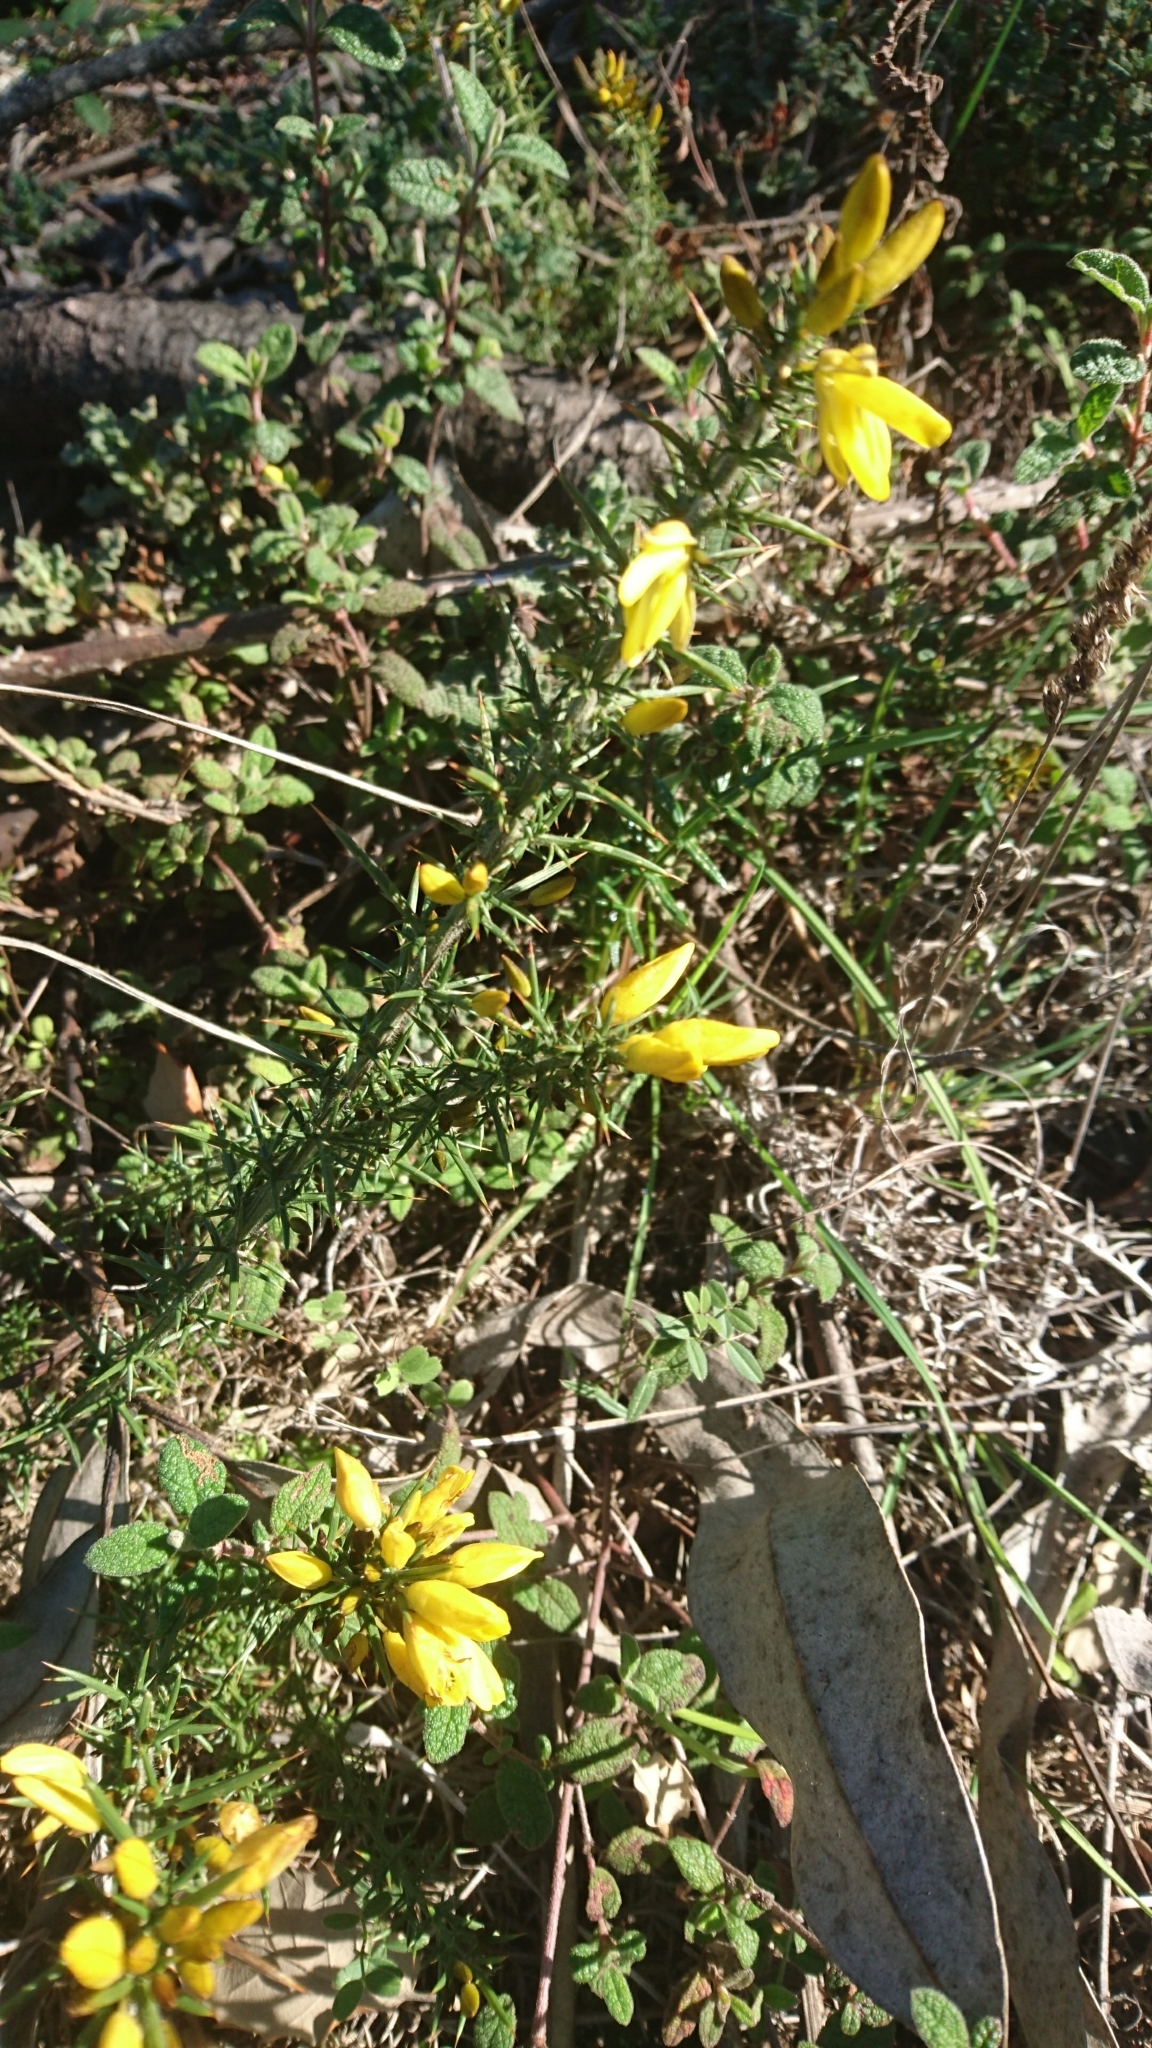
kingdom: Plantae
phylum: Tracheophyta
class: Magnoliopsida
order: Fabales
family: Fabaceae
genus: Ulex
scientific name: Ulex europaeus
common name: Common gorse
